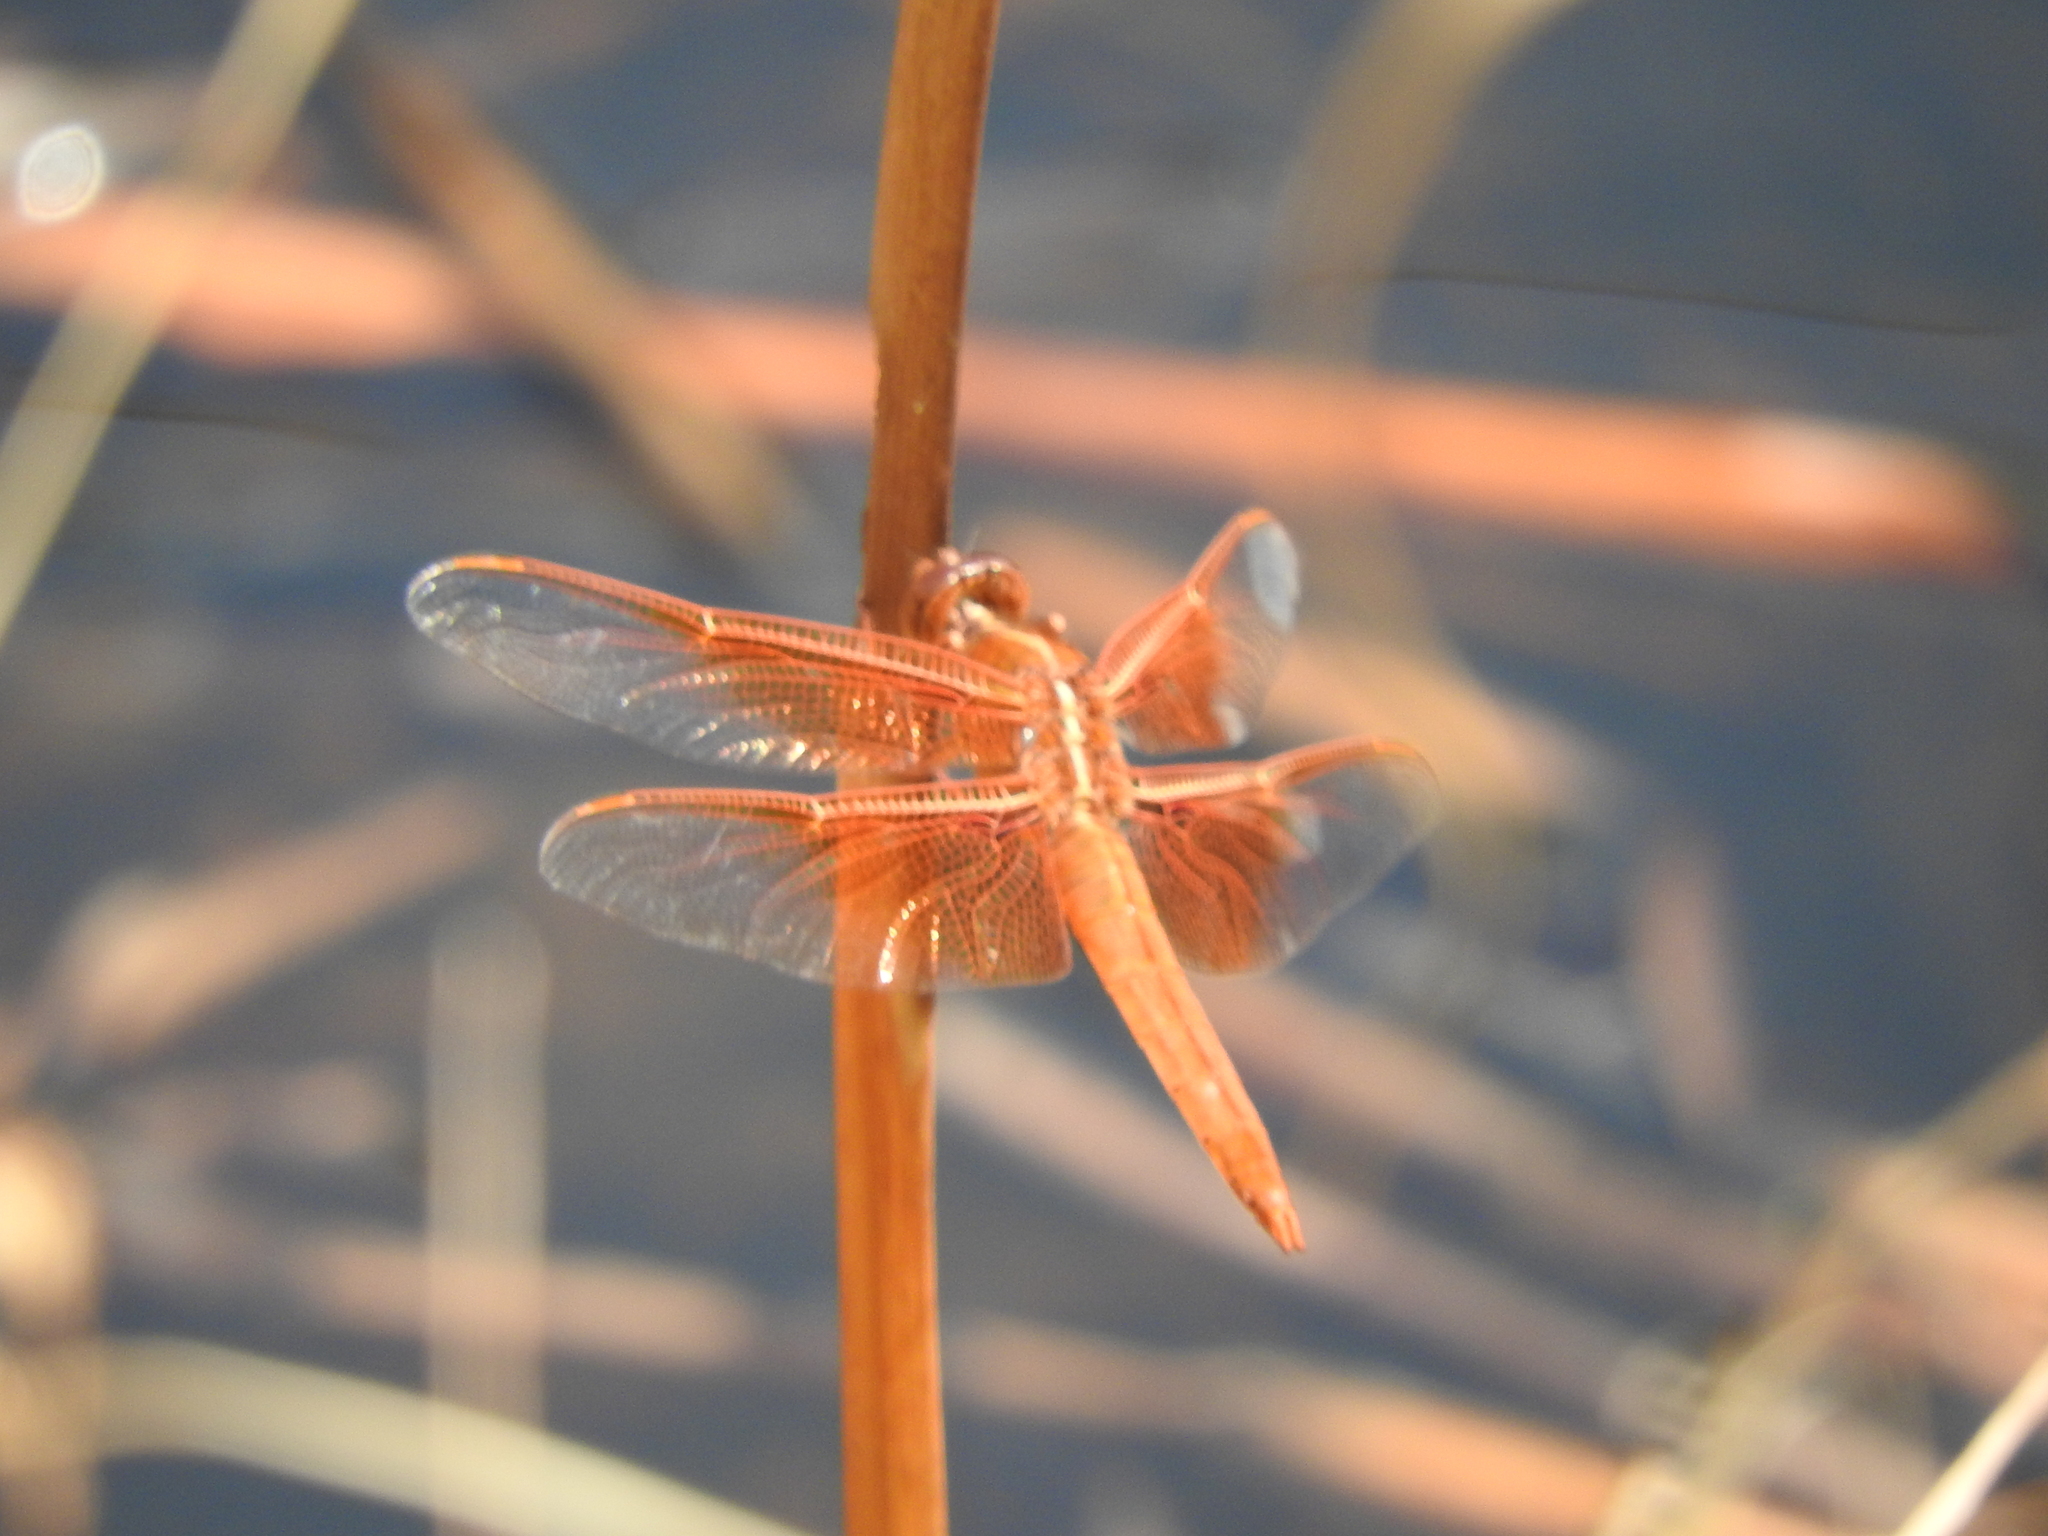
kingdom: Animalia
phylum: Arthropoda
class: Insecta
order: Odonata
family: Libellulidae
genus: Libellula
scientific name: Libellula saturata
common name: Flame skimmer
